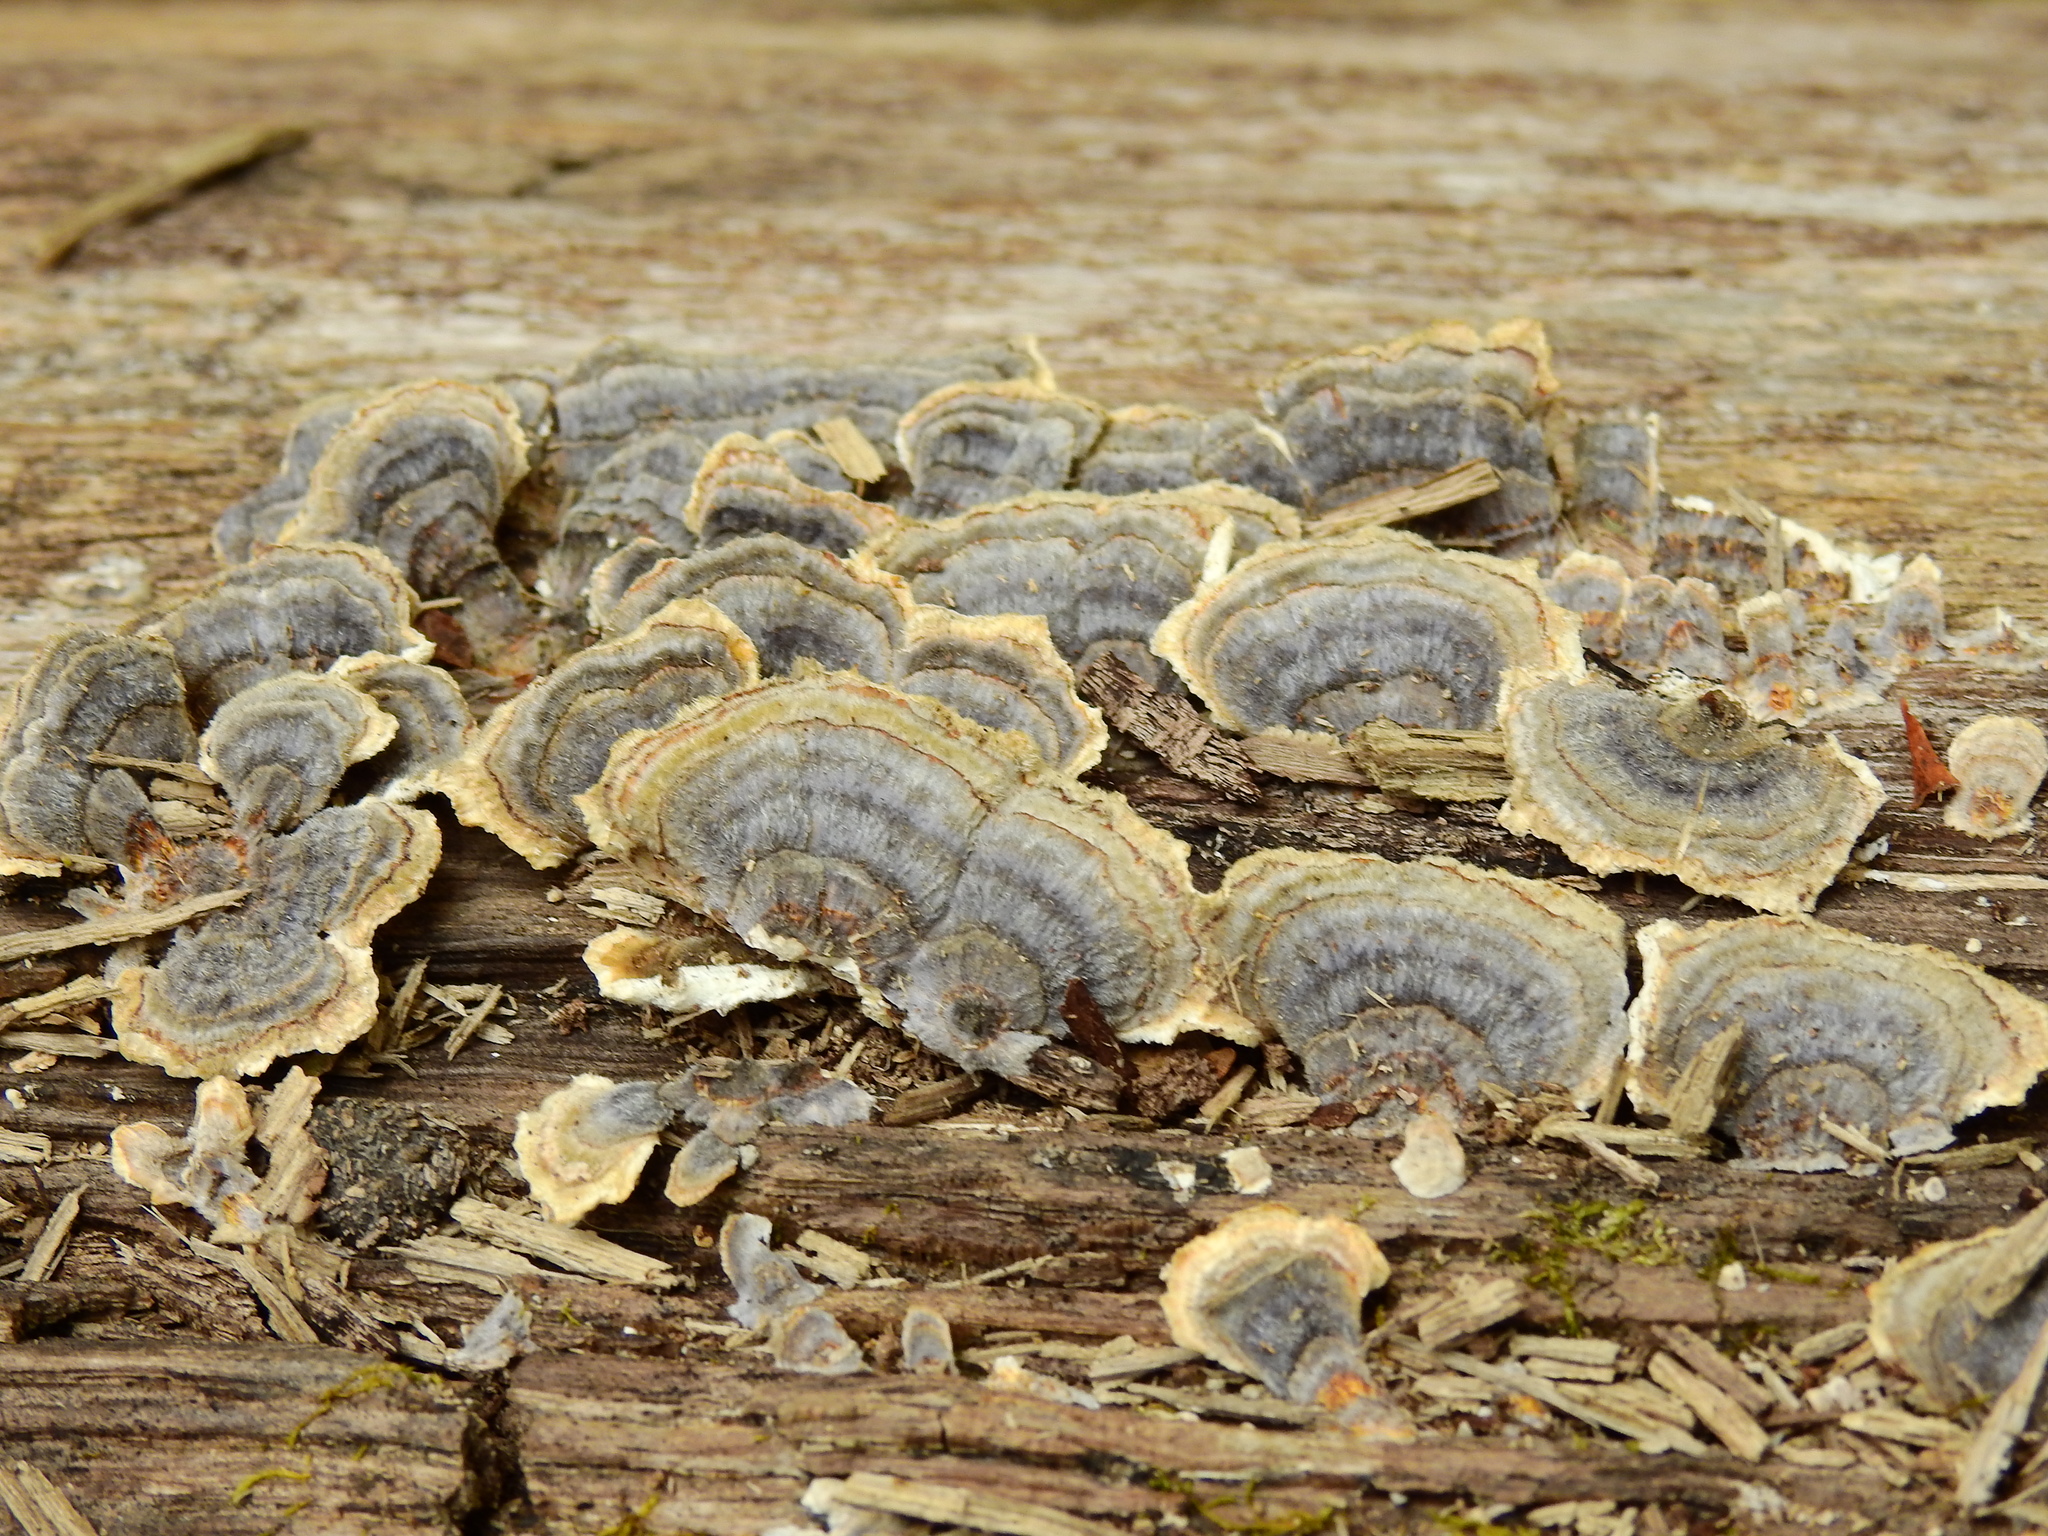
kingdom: Fungi
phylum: Basidiomycota
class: Agaricomycetes
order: Polyporales
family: Polyporaceae
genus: Trametes
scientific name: Trametes versicolor
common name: Turkeytail
